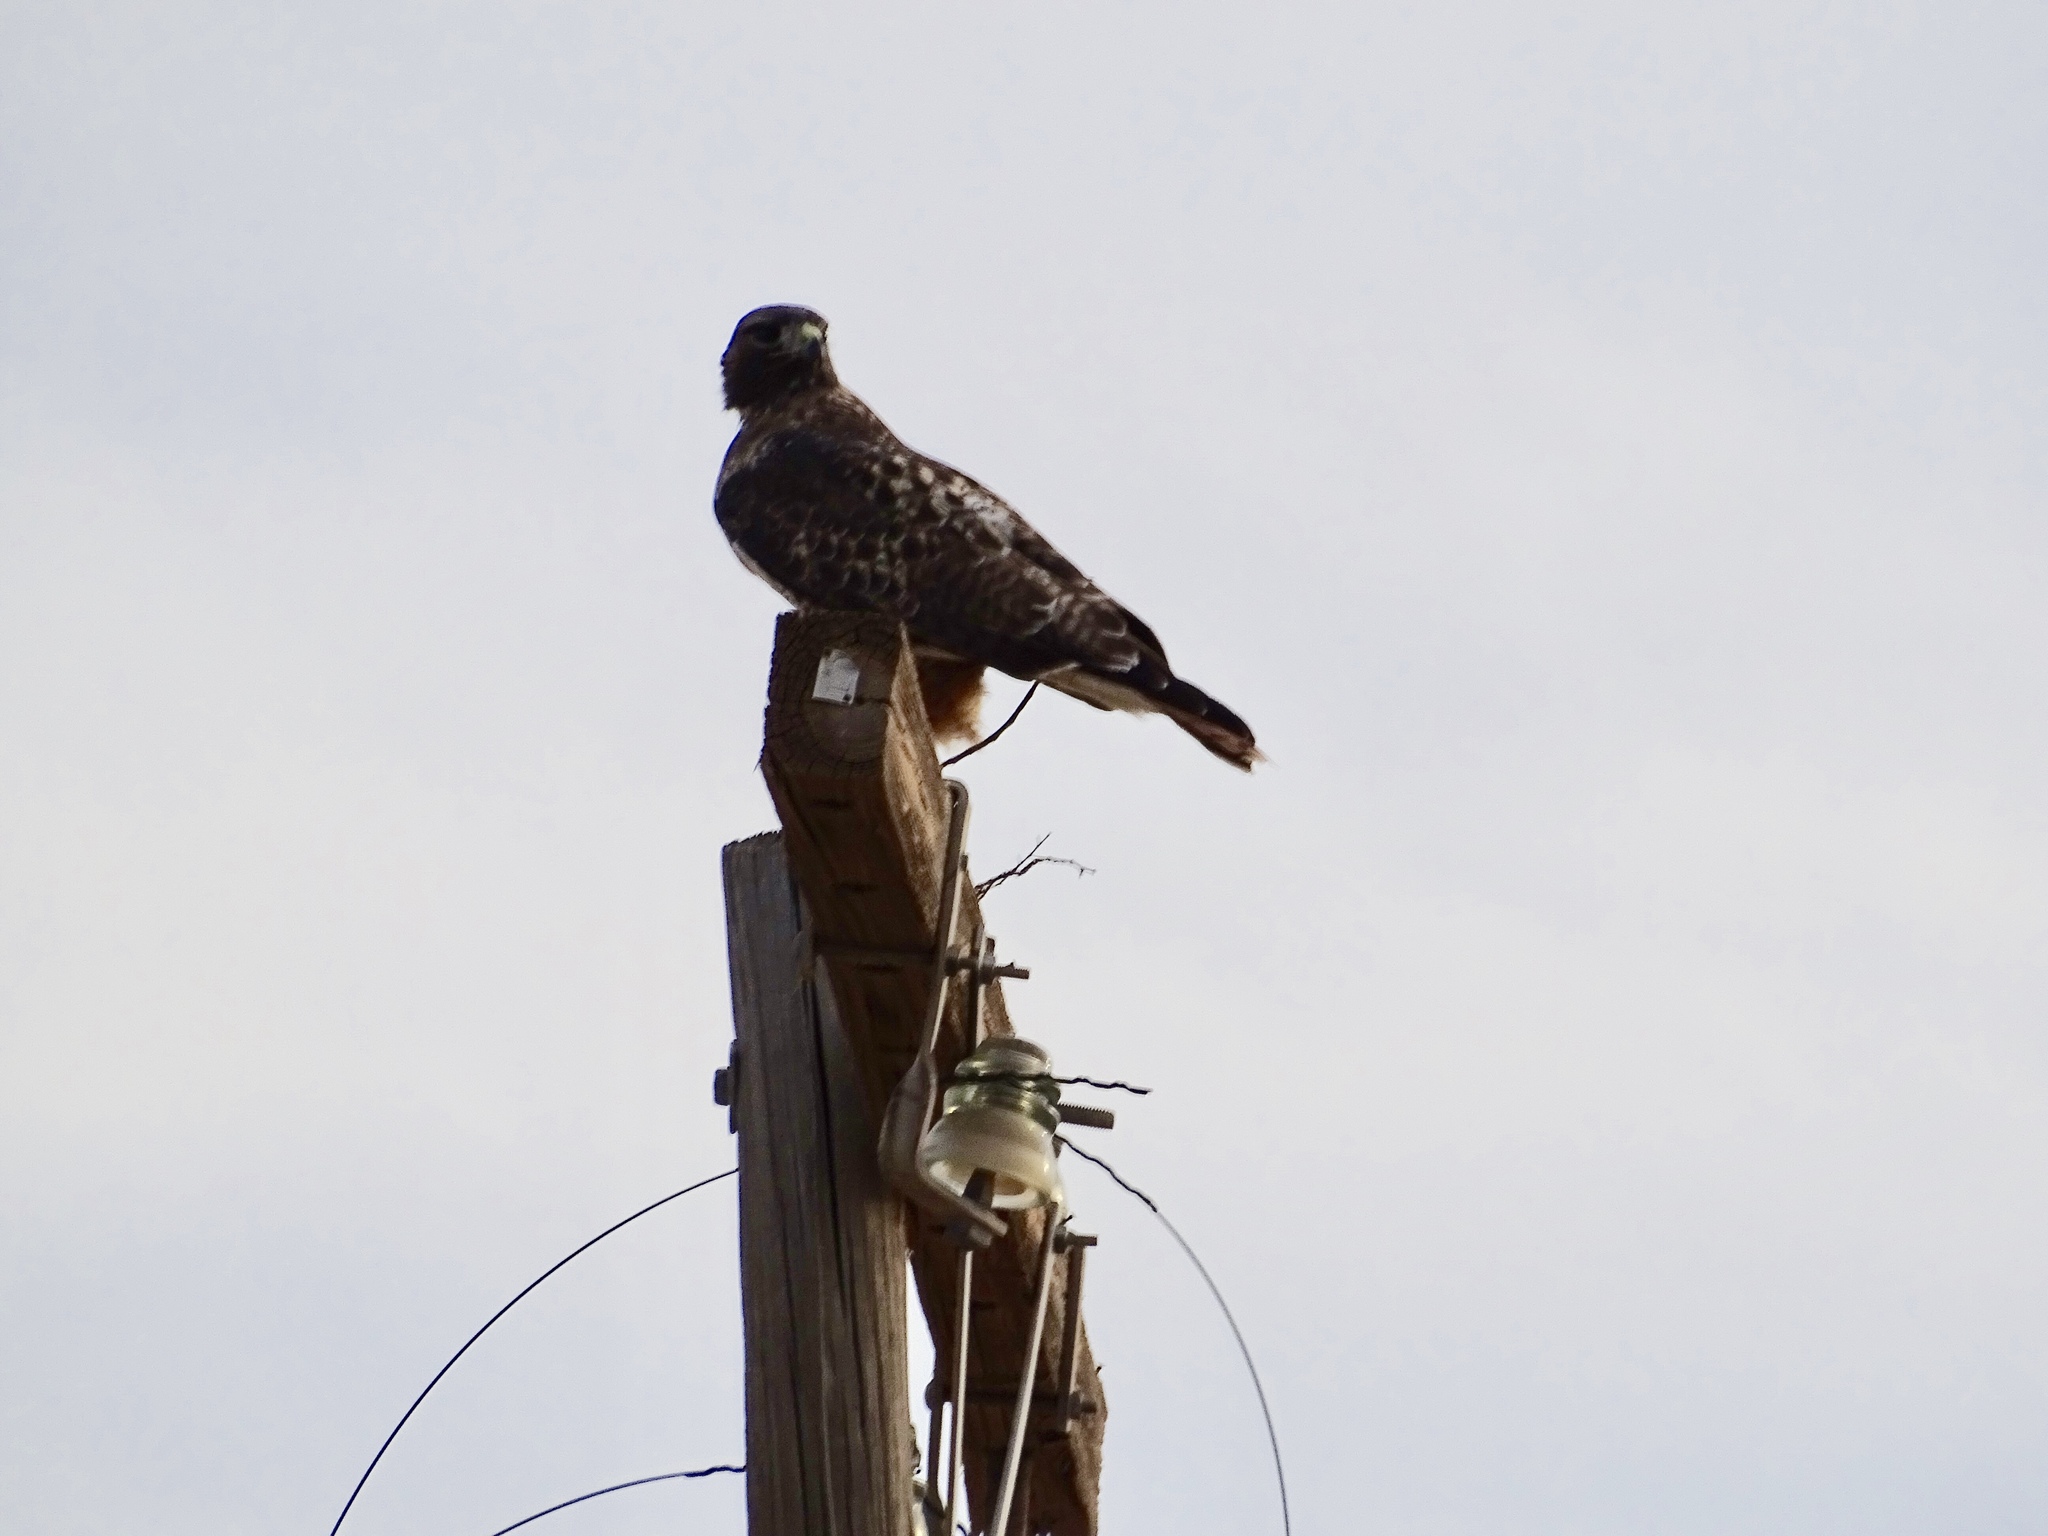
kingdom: Animalia
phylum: Chordata
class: Aves
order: Accipitriformes
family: Accipitridae
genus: Buteo
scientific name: Buteo jamaicensis
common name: Red-tailed hawk
